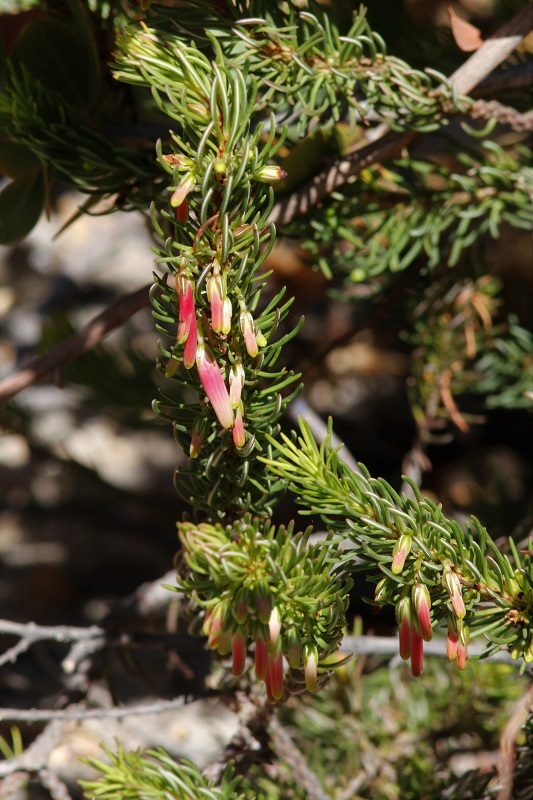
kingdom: Plantae
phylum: Tracheophyta
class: Magnoliopsida
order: Ericales
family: Ericaceae
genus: Erica
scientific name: Erica plukenetii
